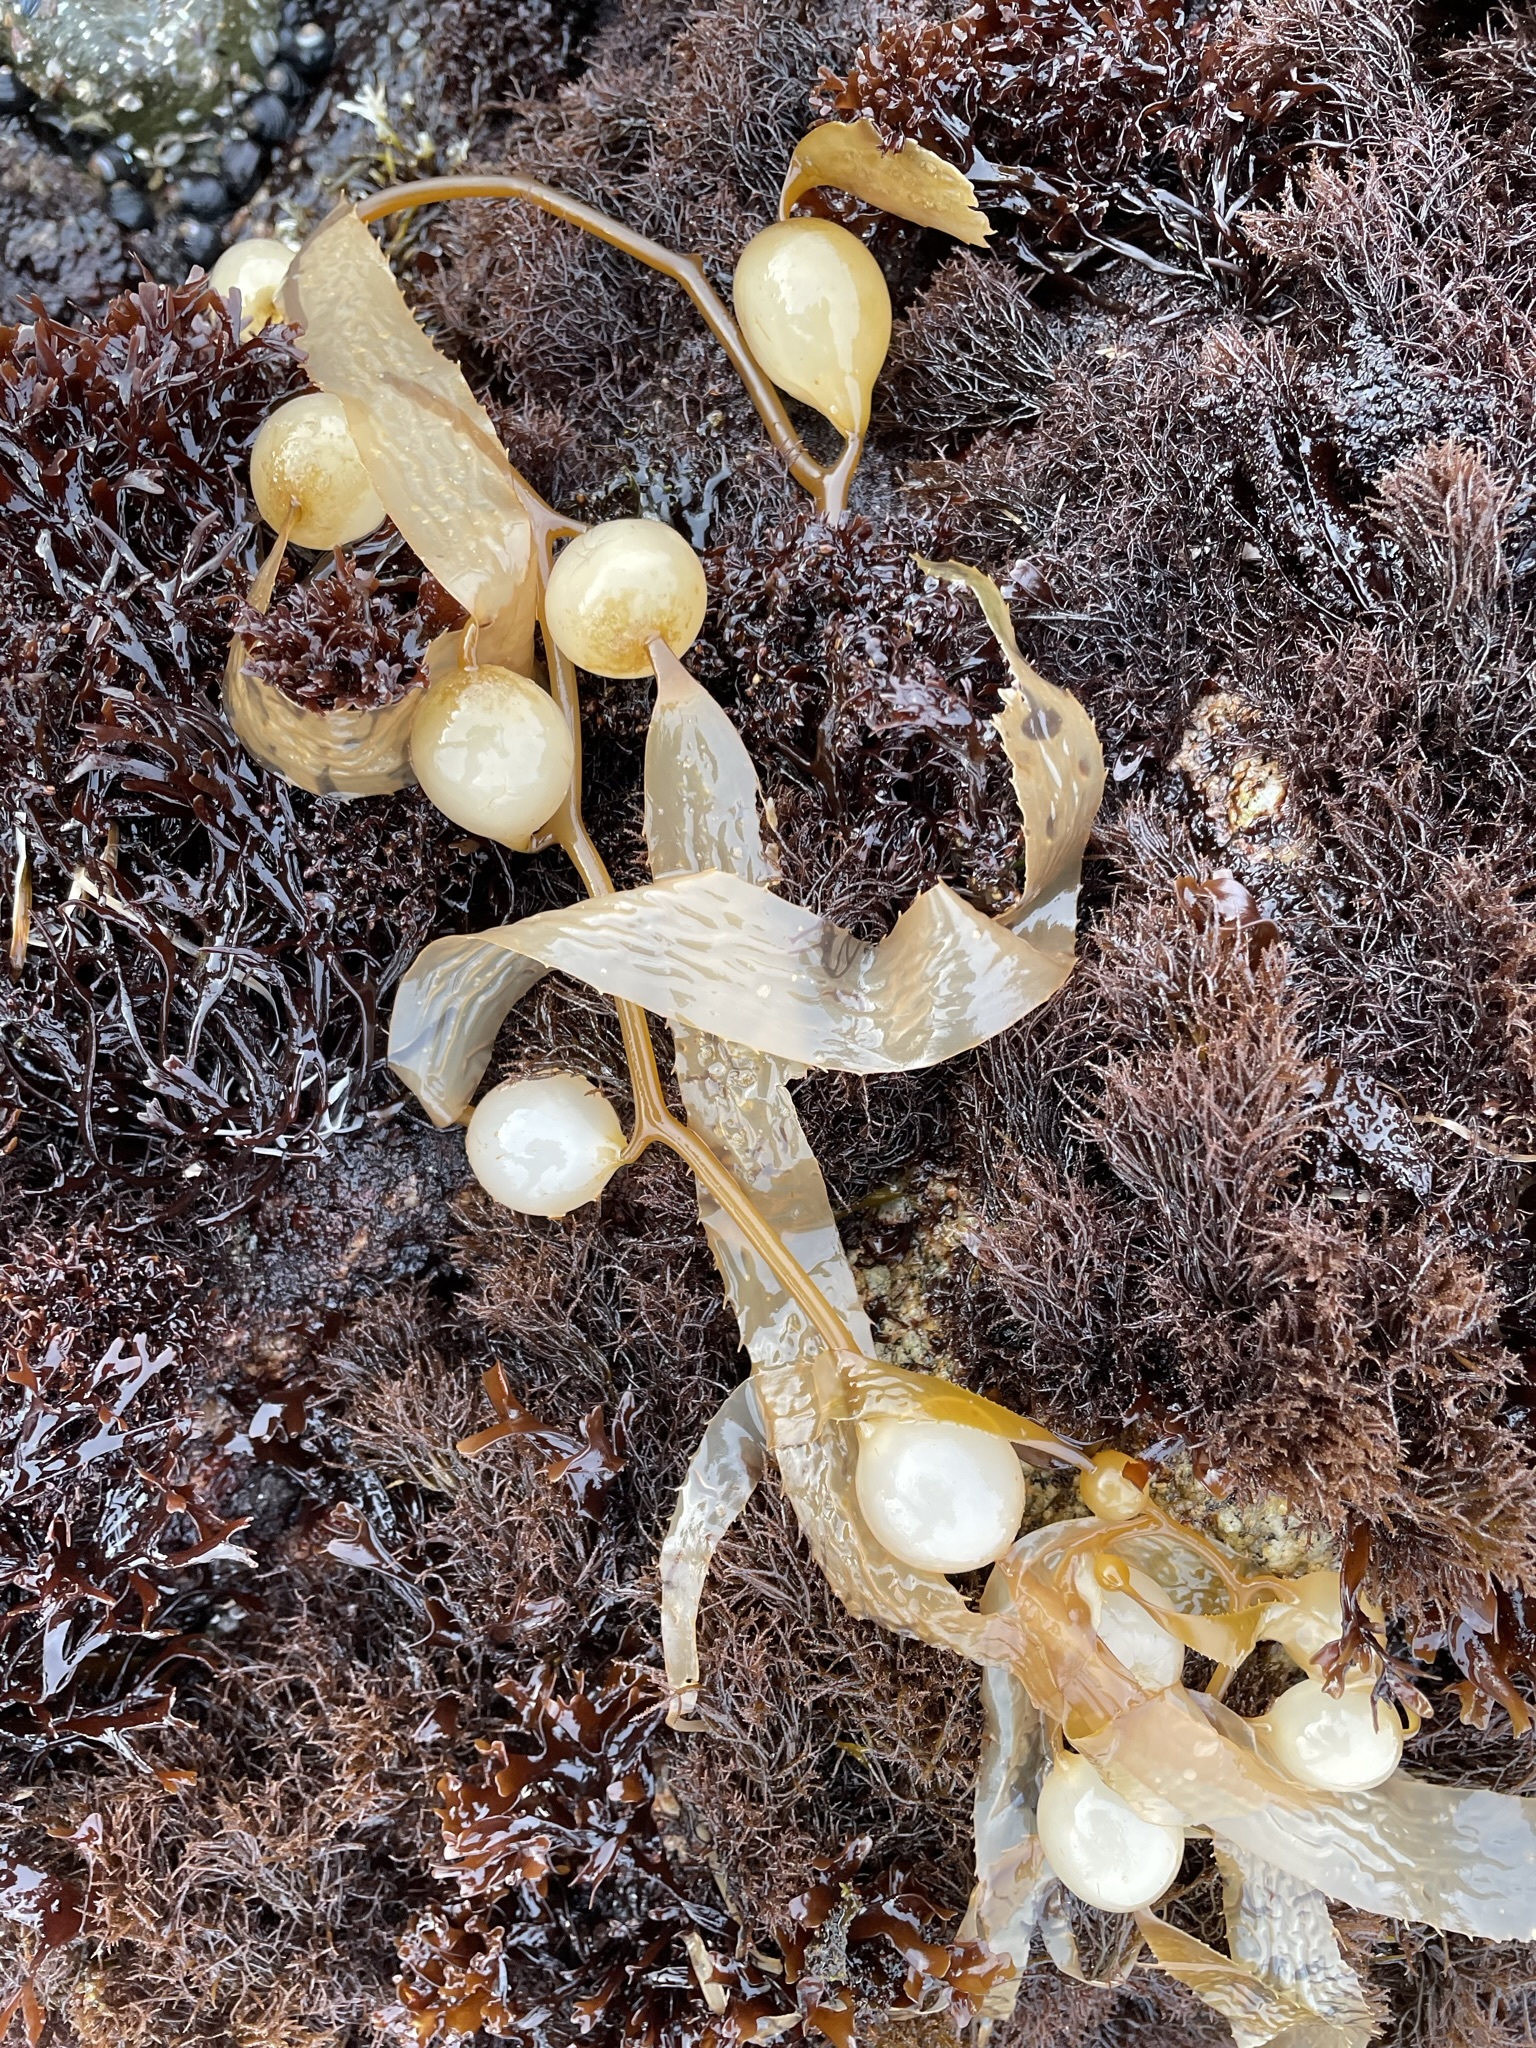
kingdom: Chromista
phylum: Ochrophyta
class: Phaeophyceae
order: Laminariales
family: Laminariaceae
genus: Macrocystis
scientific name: Macrocystis pyrifera
